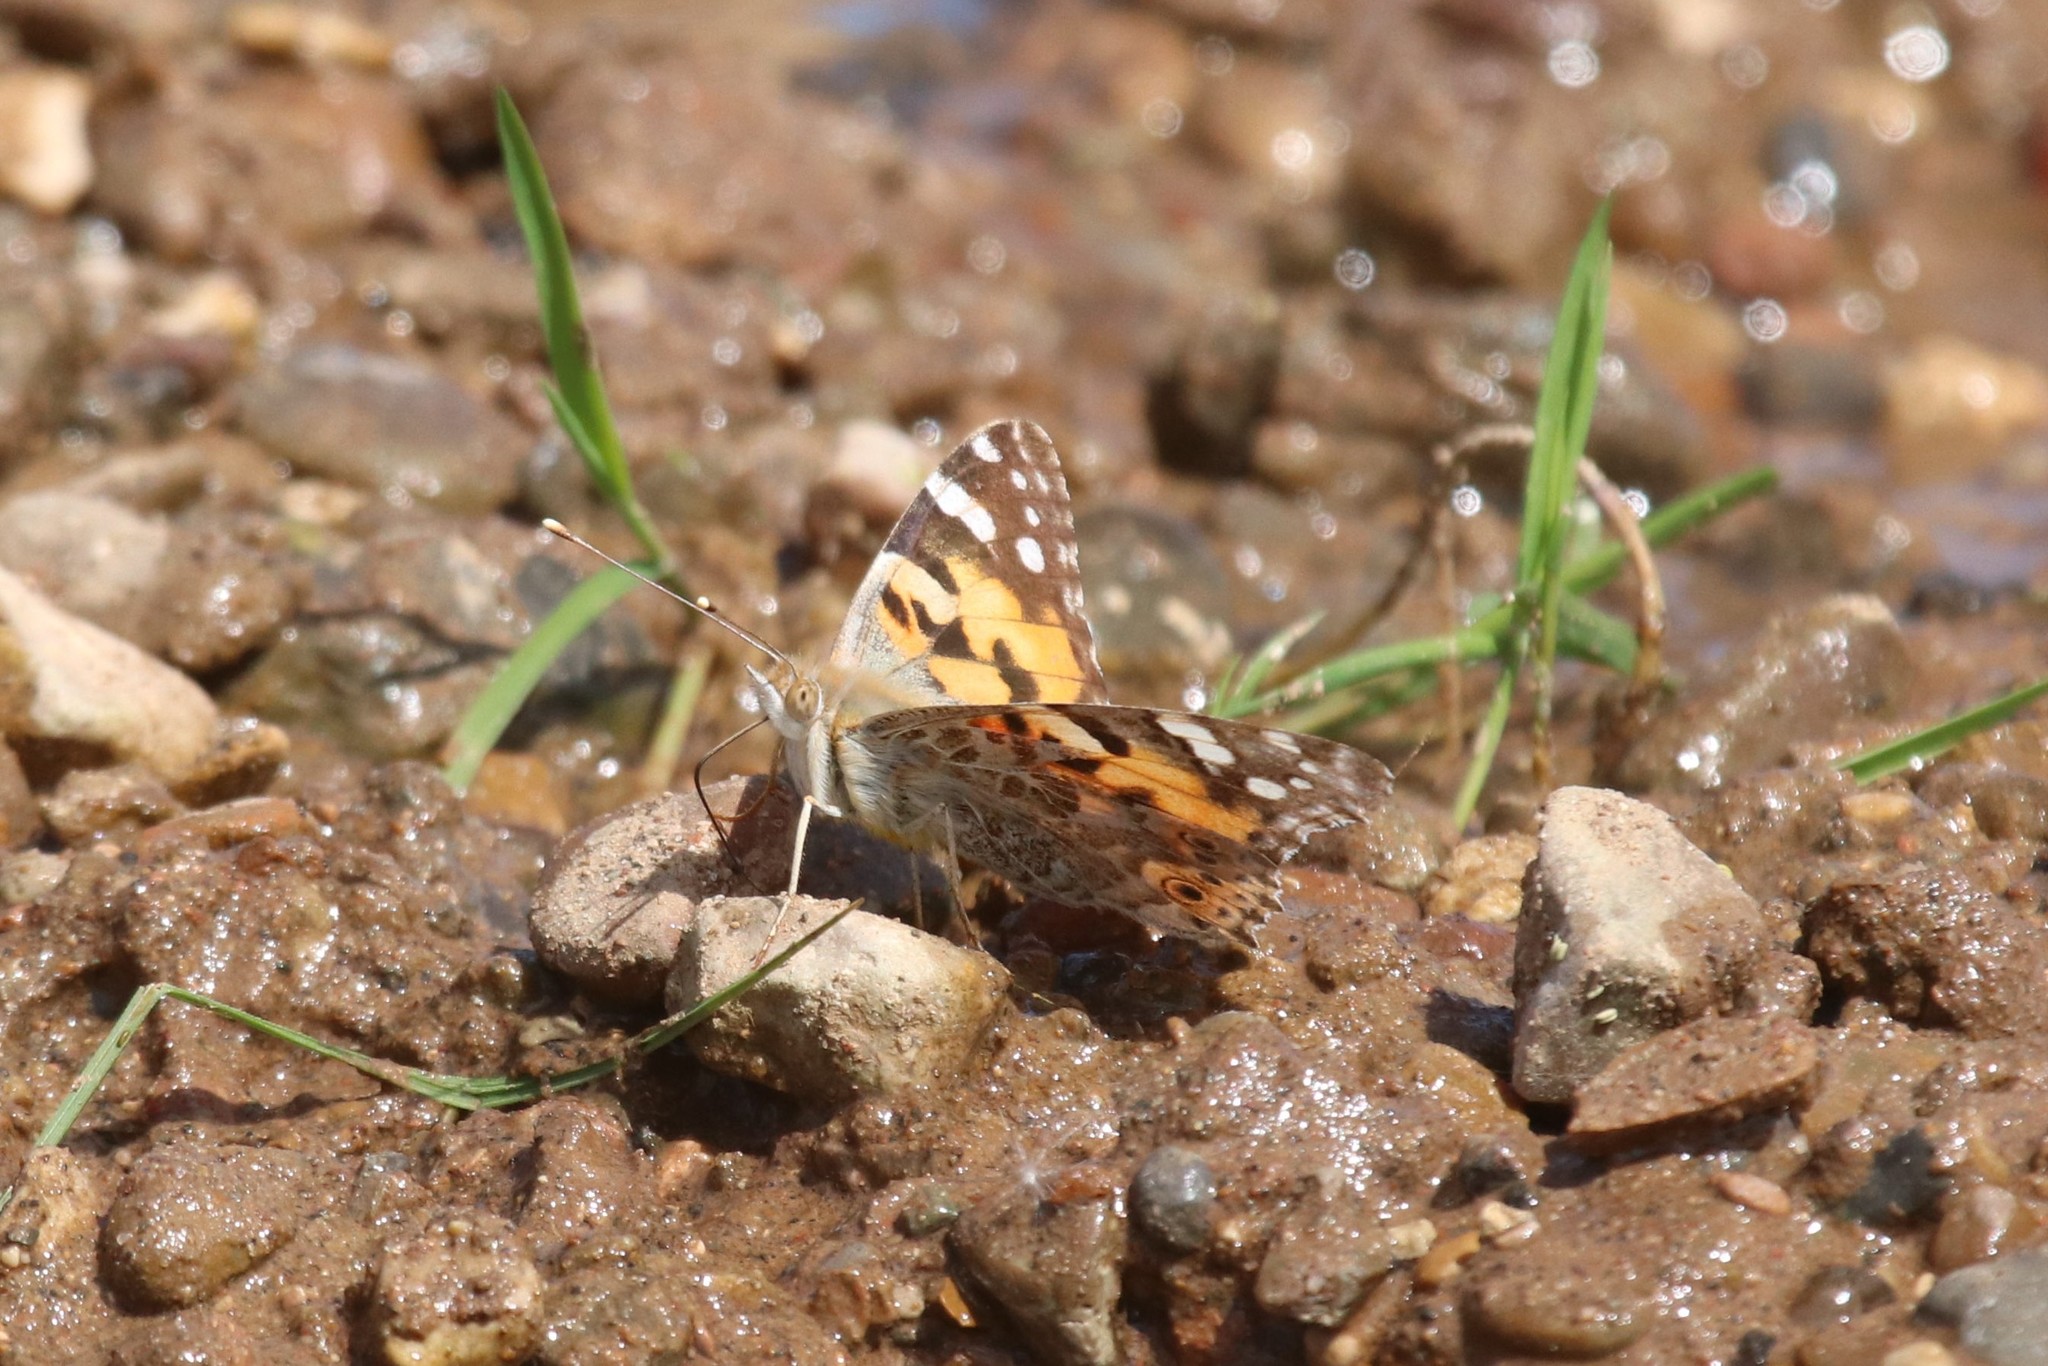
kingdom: Animalia
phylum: Arthropoda
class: Insecta
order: Lepidoptera
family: Nymphalidae
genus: Vanessa
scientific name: Vanessa cardui
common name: Painted lady
